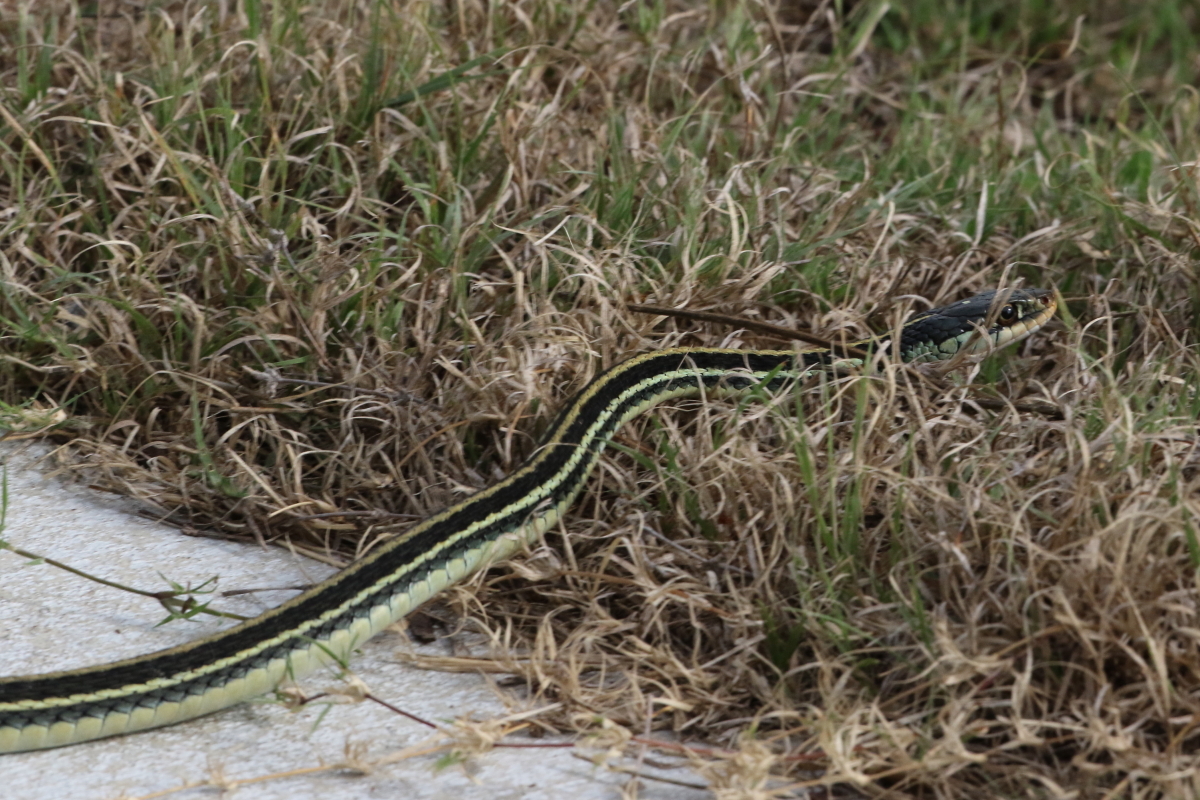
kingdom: Animalia
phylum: Chordata
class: Squamata
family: Colubridae
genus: Thamnophis
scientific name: Thamnophis proximus
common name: Western ribbon snake
